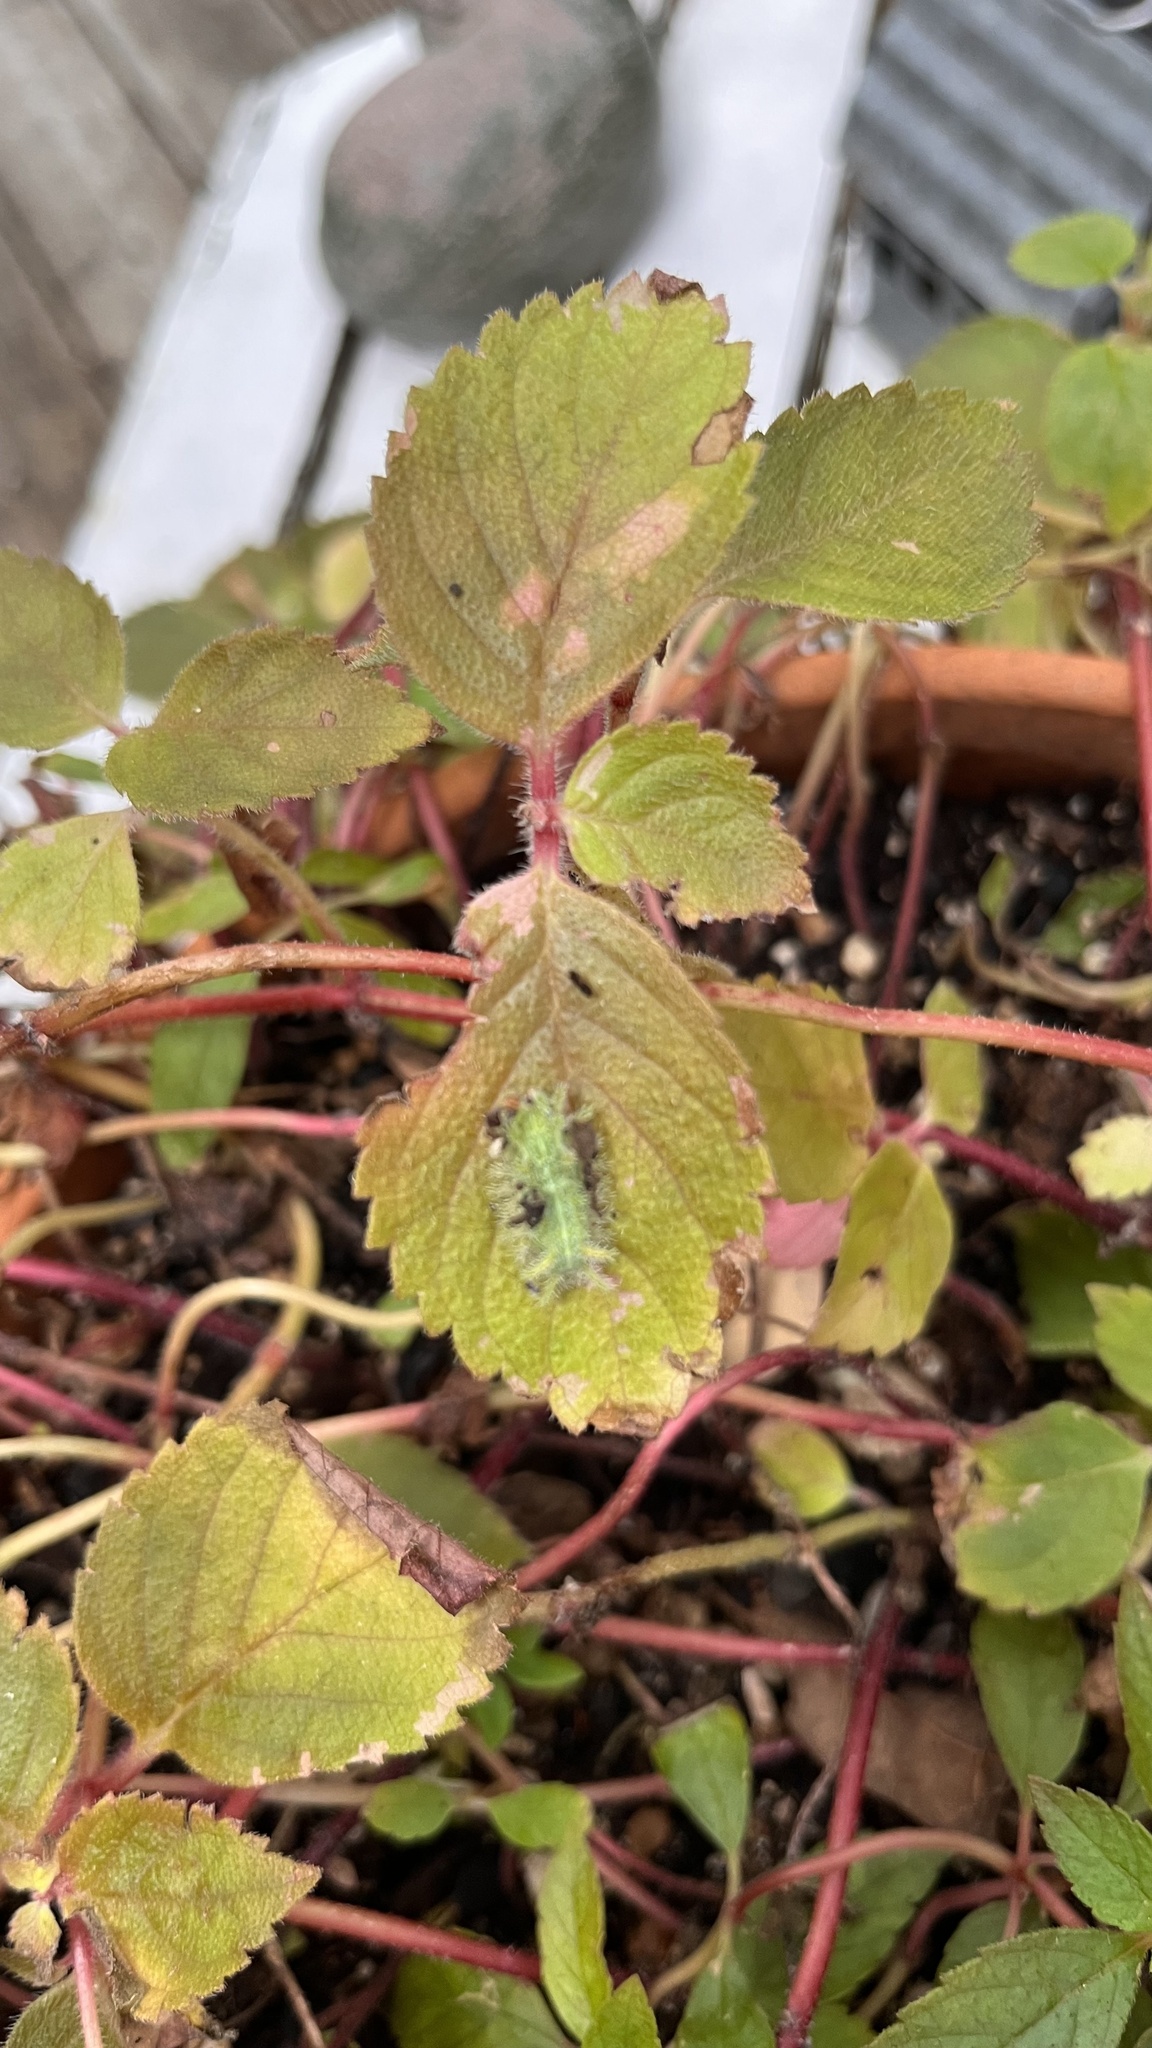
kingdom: Animalia
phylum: Arthropoda
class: Insecta
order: Lepidoptera
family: Limacodidae
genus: Euclea
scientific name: Euclea incisa
